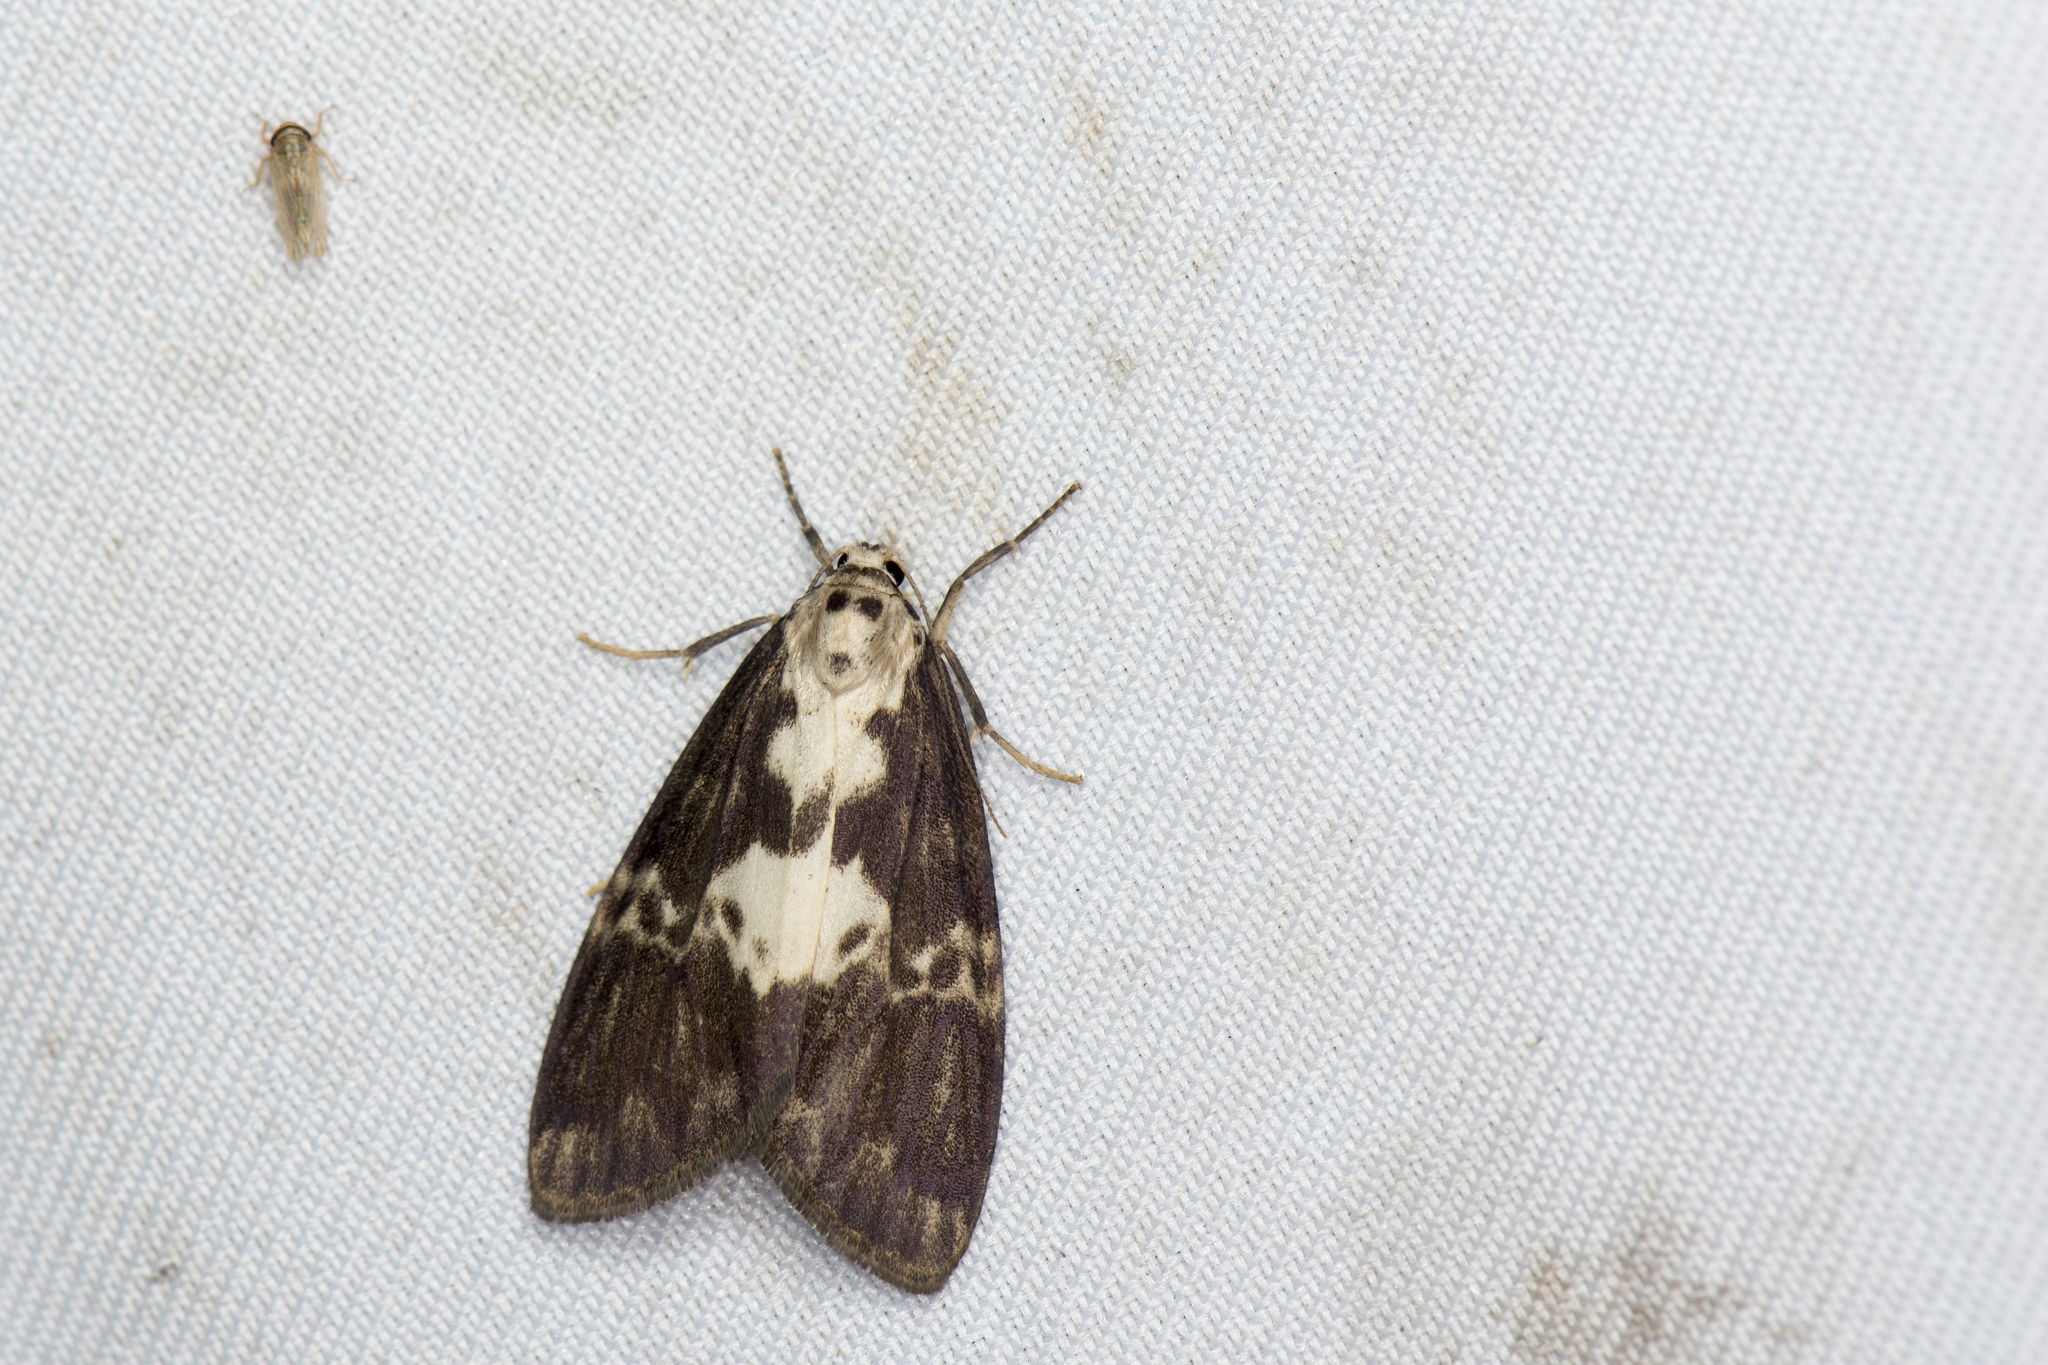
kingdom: Animalia
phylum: Arthropoda
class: Insecta
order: Lepidoptera
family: Erebidae
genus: Barsura
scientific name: Barsura albidorsalis
